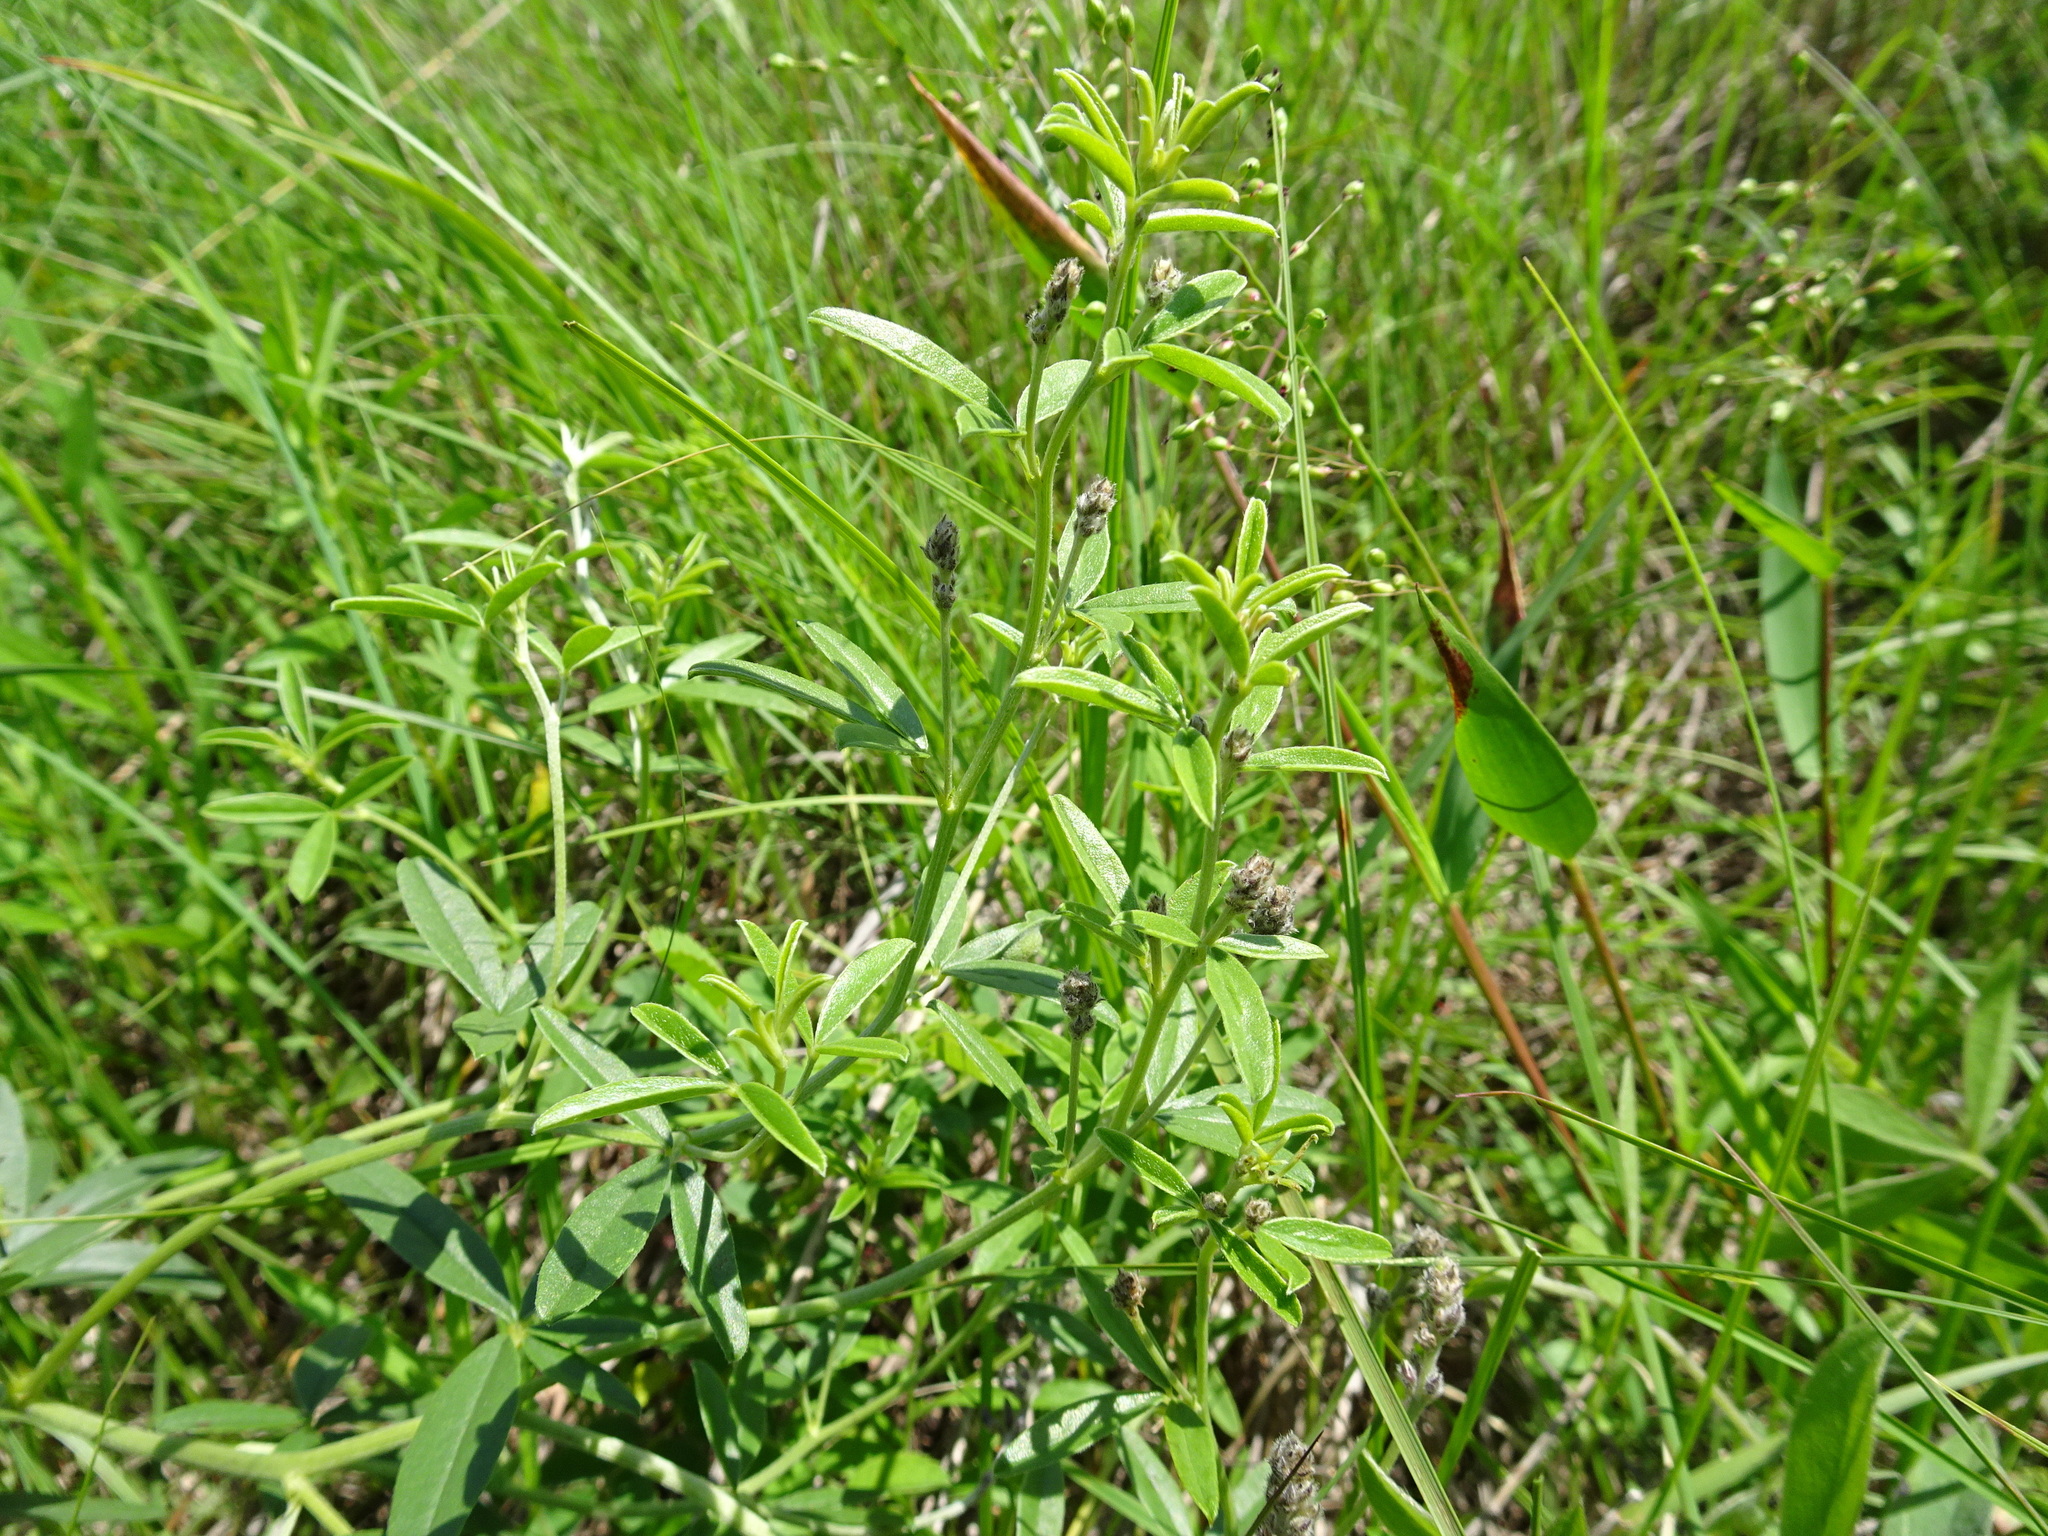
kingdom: Plantae
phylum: Tracheophyta
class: Magnoliopsida
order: Fabales
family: Fabaceae
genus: Pediomelum
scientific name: Pediomelum tenuiflorum
